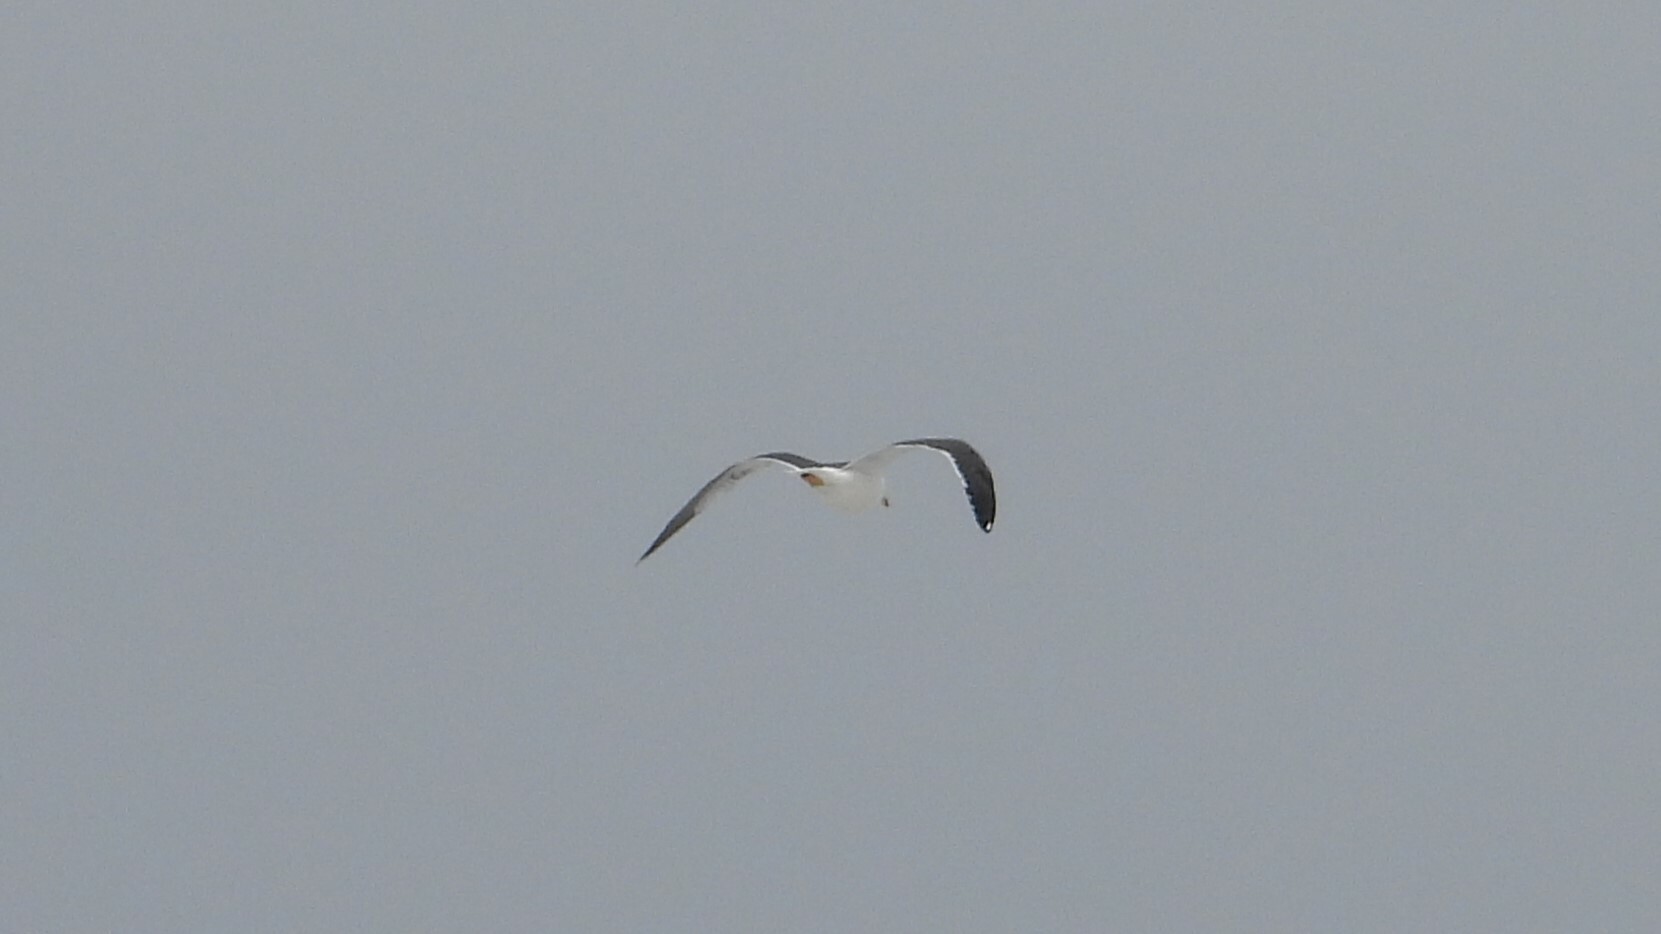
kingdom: Animalia
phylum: Chordata
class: Aves
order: Charadriiformes
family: Laridae
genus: Larus
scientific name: Larus fuscus
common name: Lesser black-backed gull
